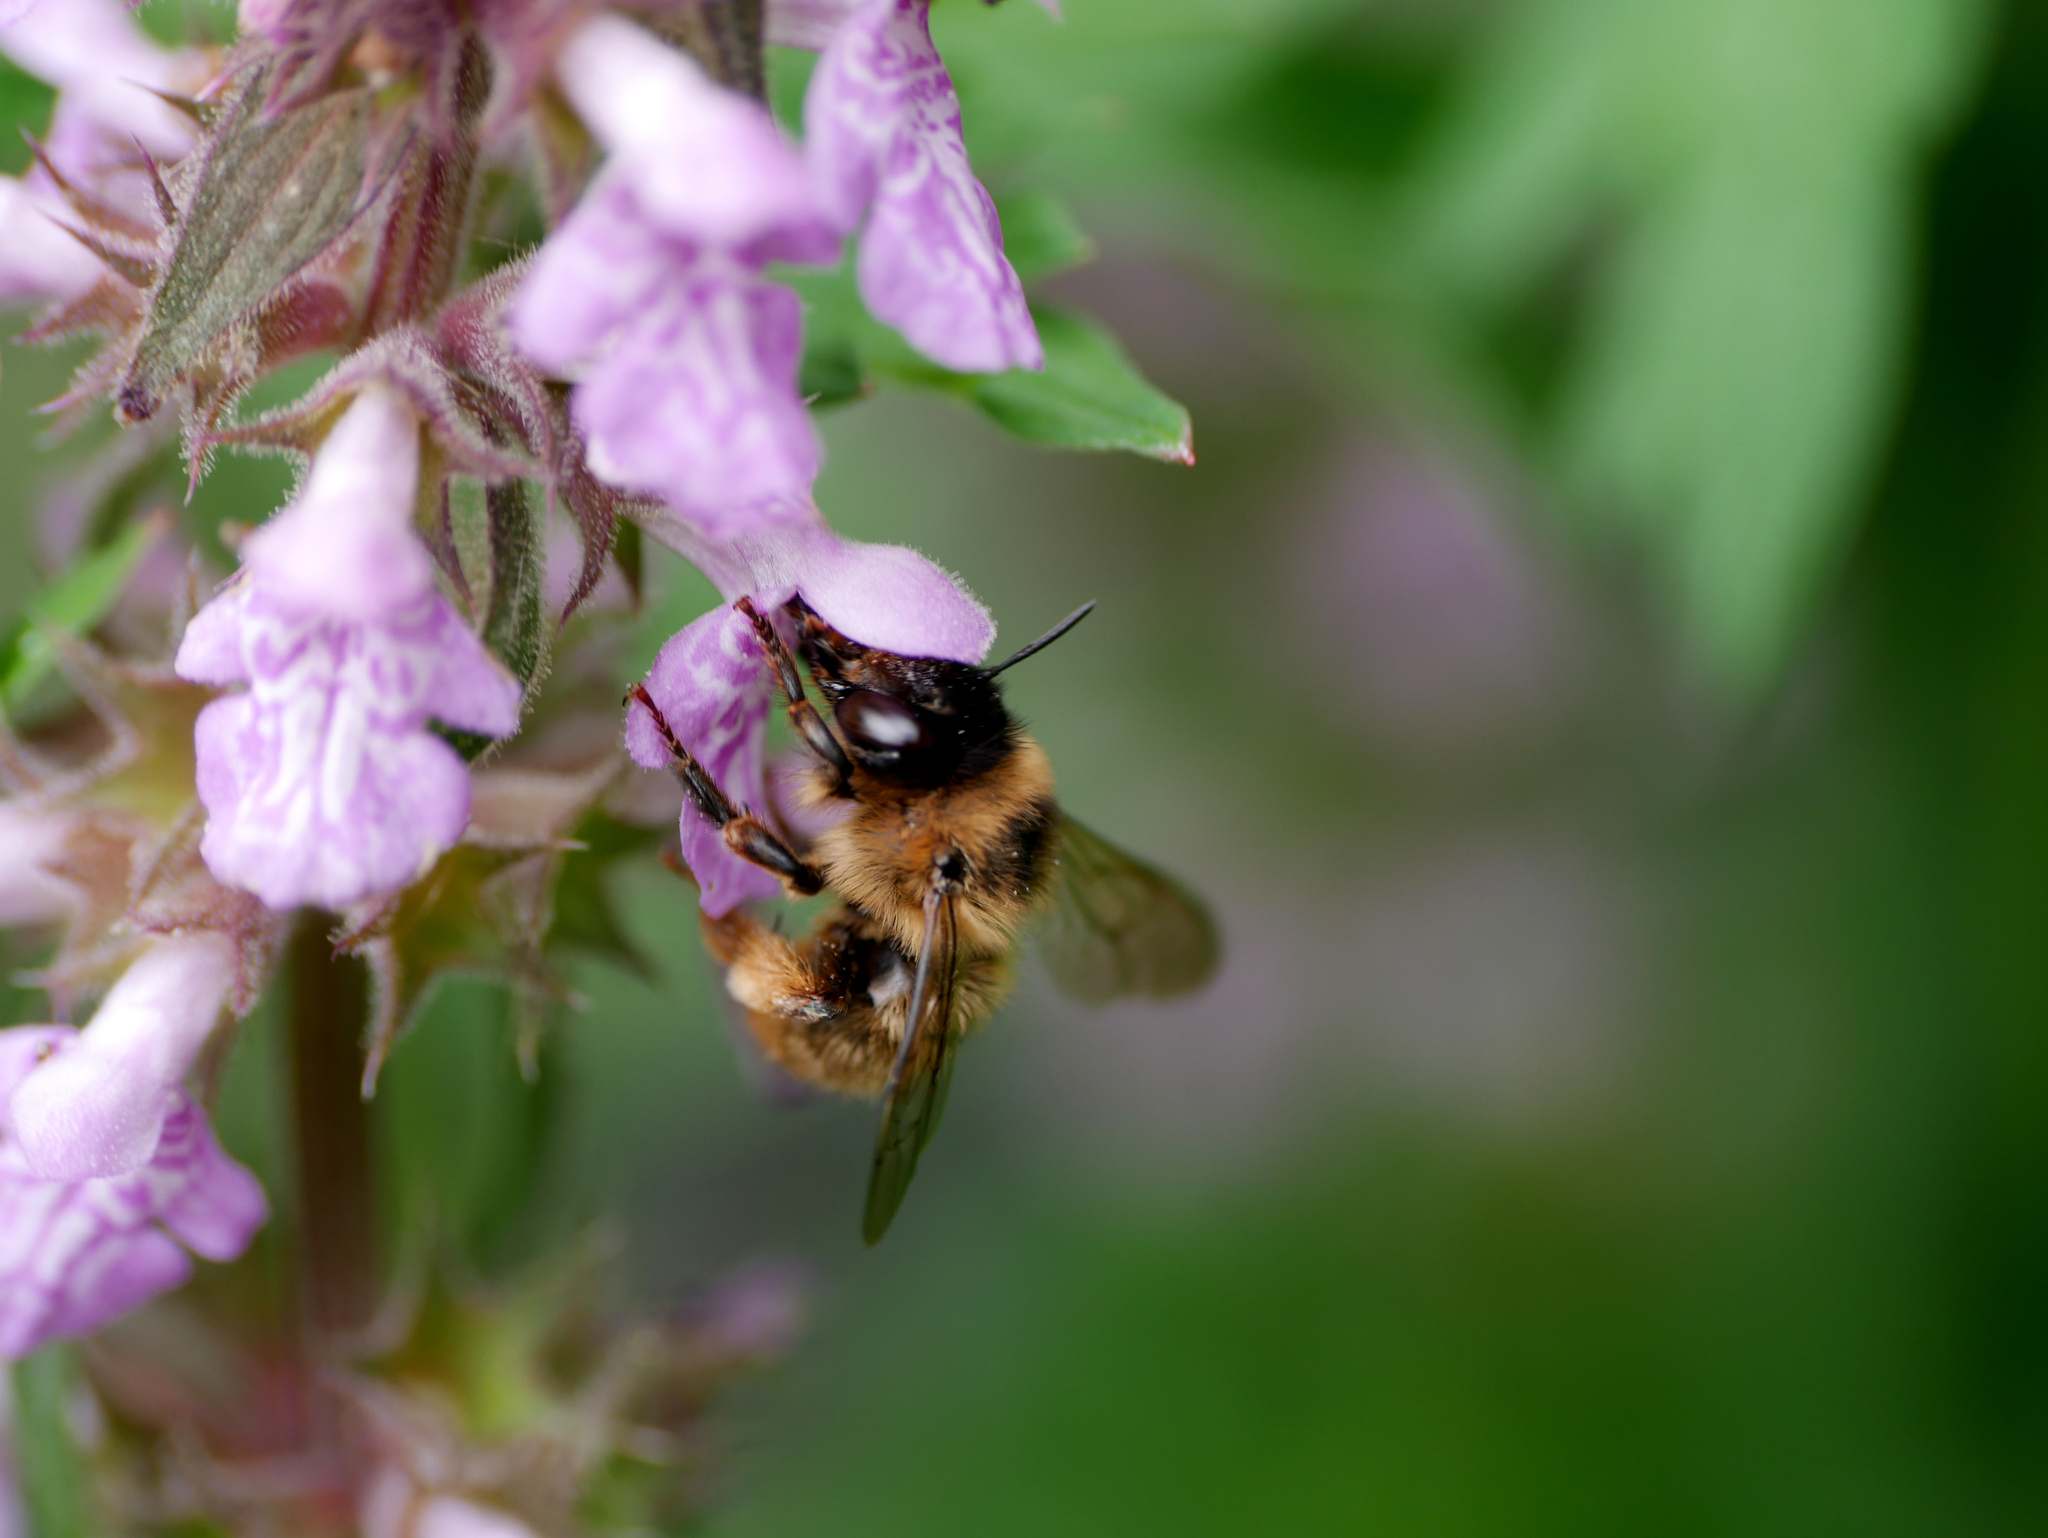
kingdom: Animalia
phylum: Arthropoda
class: Insecta
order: Hymenoptera
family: Apidae
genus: Anthophora
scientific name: Anthophora furcata
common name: Fork-tailed flower bee
